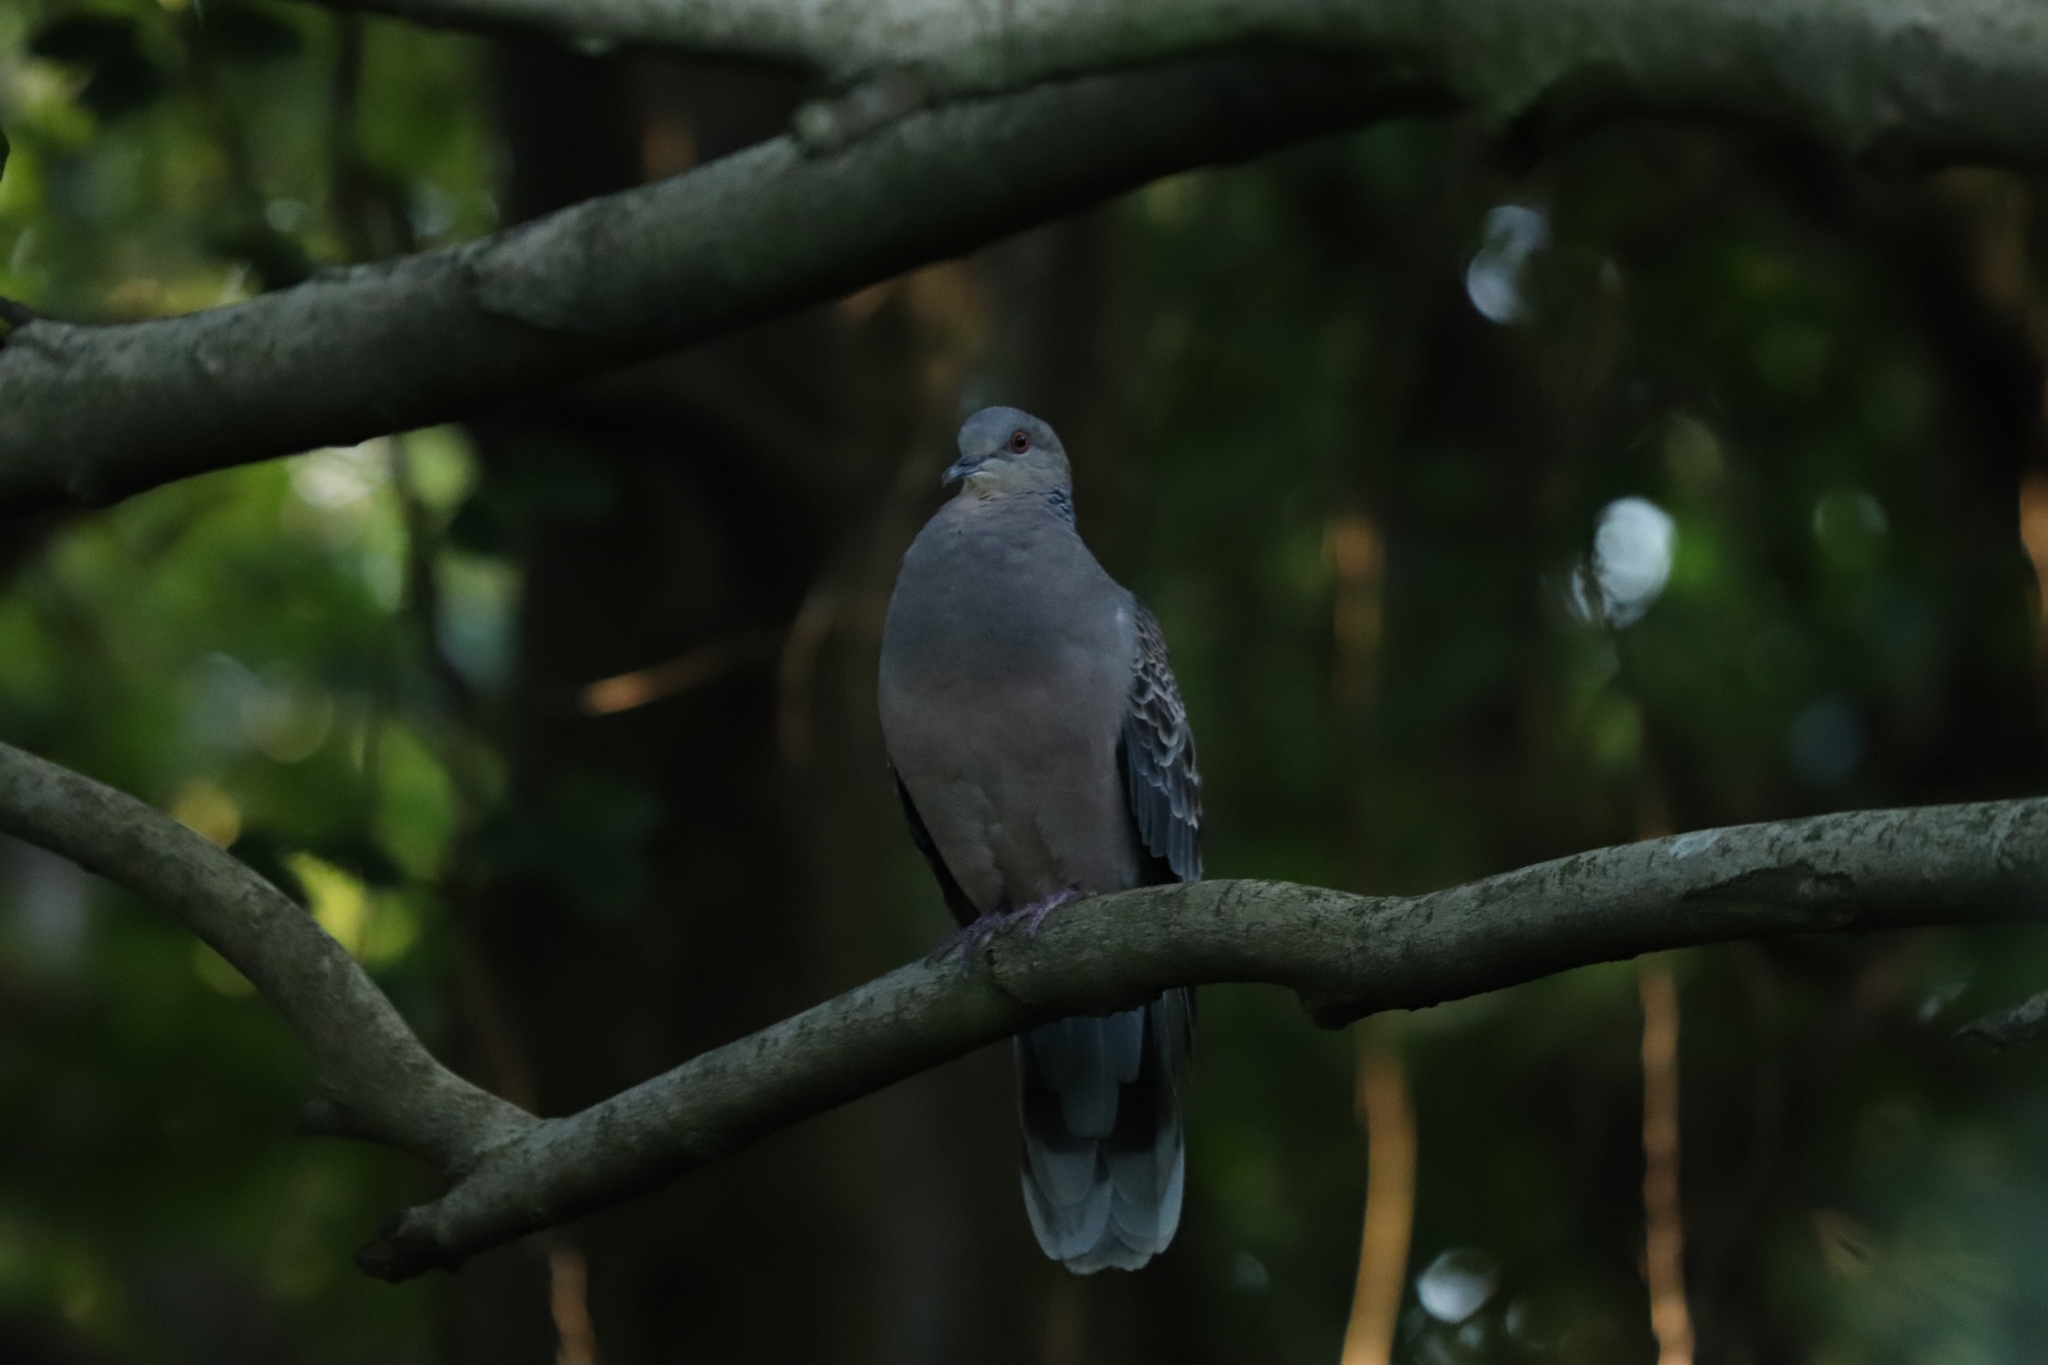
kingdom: Animalia
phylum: Chordata
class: Aves
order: Columbiformes
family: Columbidae
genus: Streptopelia
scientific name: Streptopelia orientalis
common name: Oriental turtle dove
